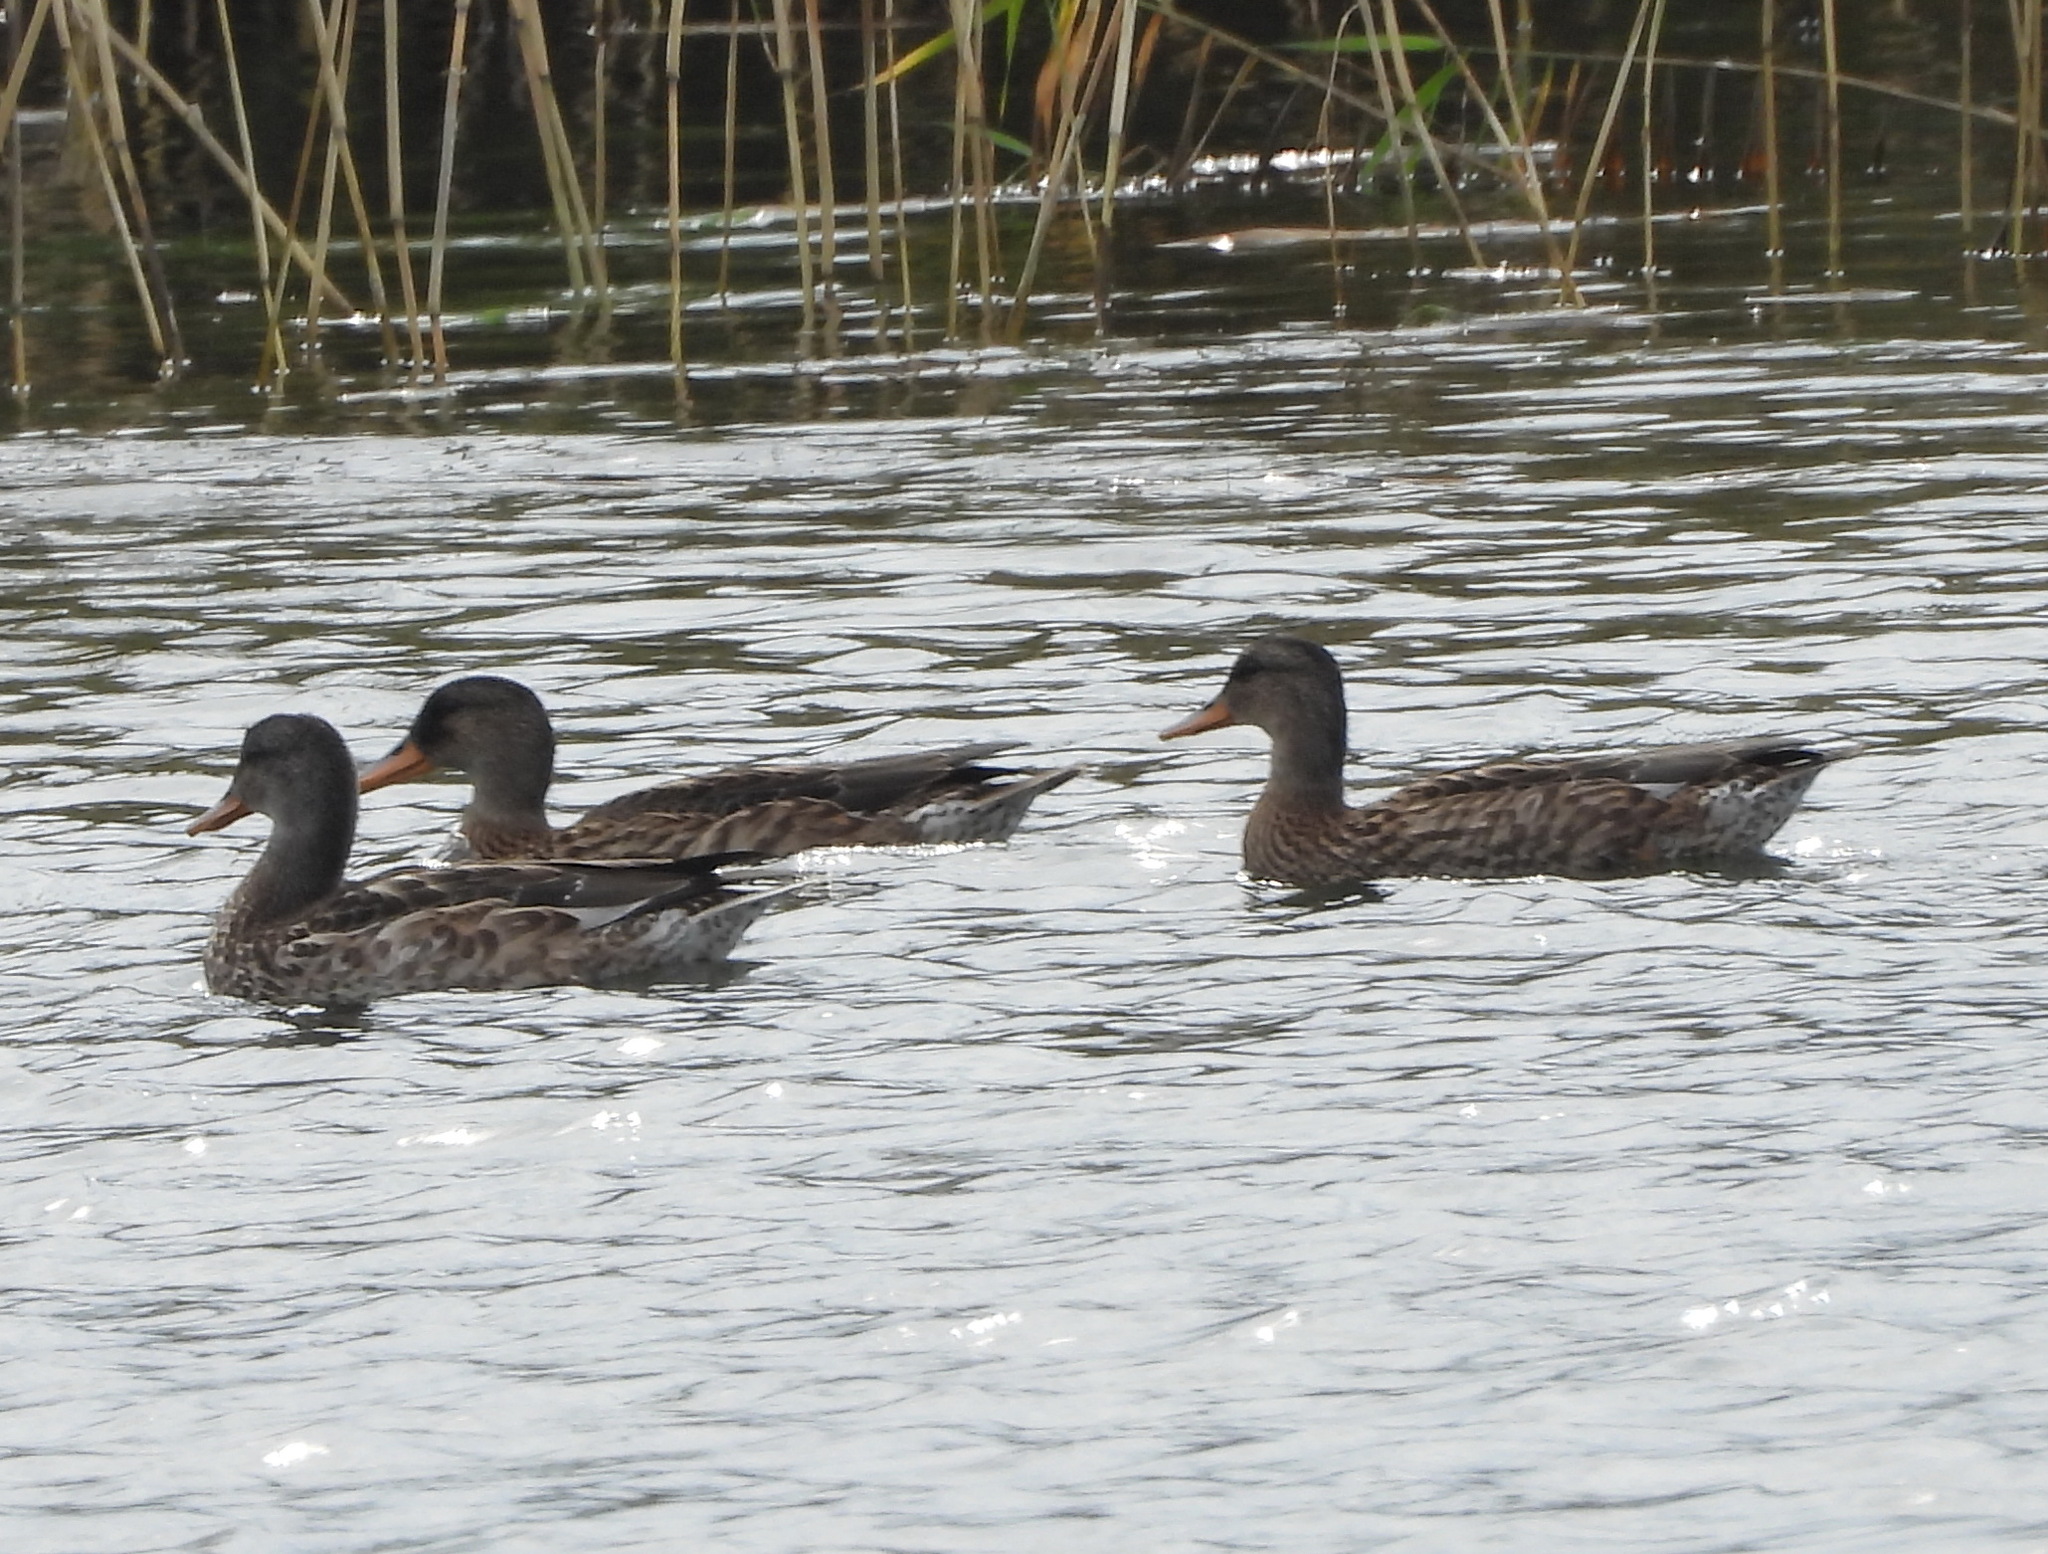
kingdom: Animalia
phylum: Chordata
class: Aves
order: Anseriformes
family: Anatidae
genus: Mareca
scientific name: Mareca strepera
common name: Gadwall
